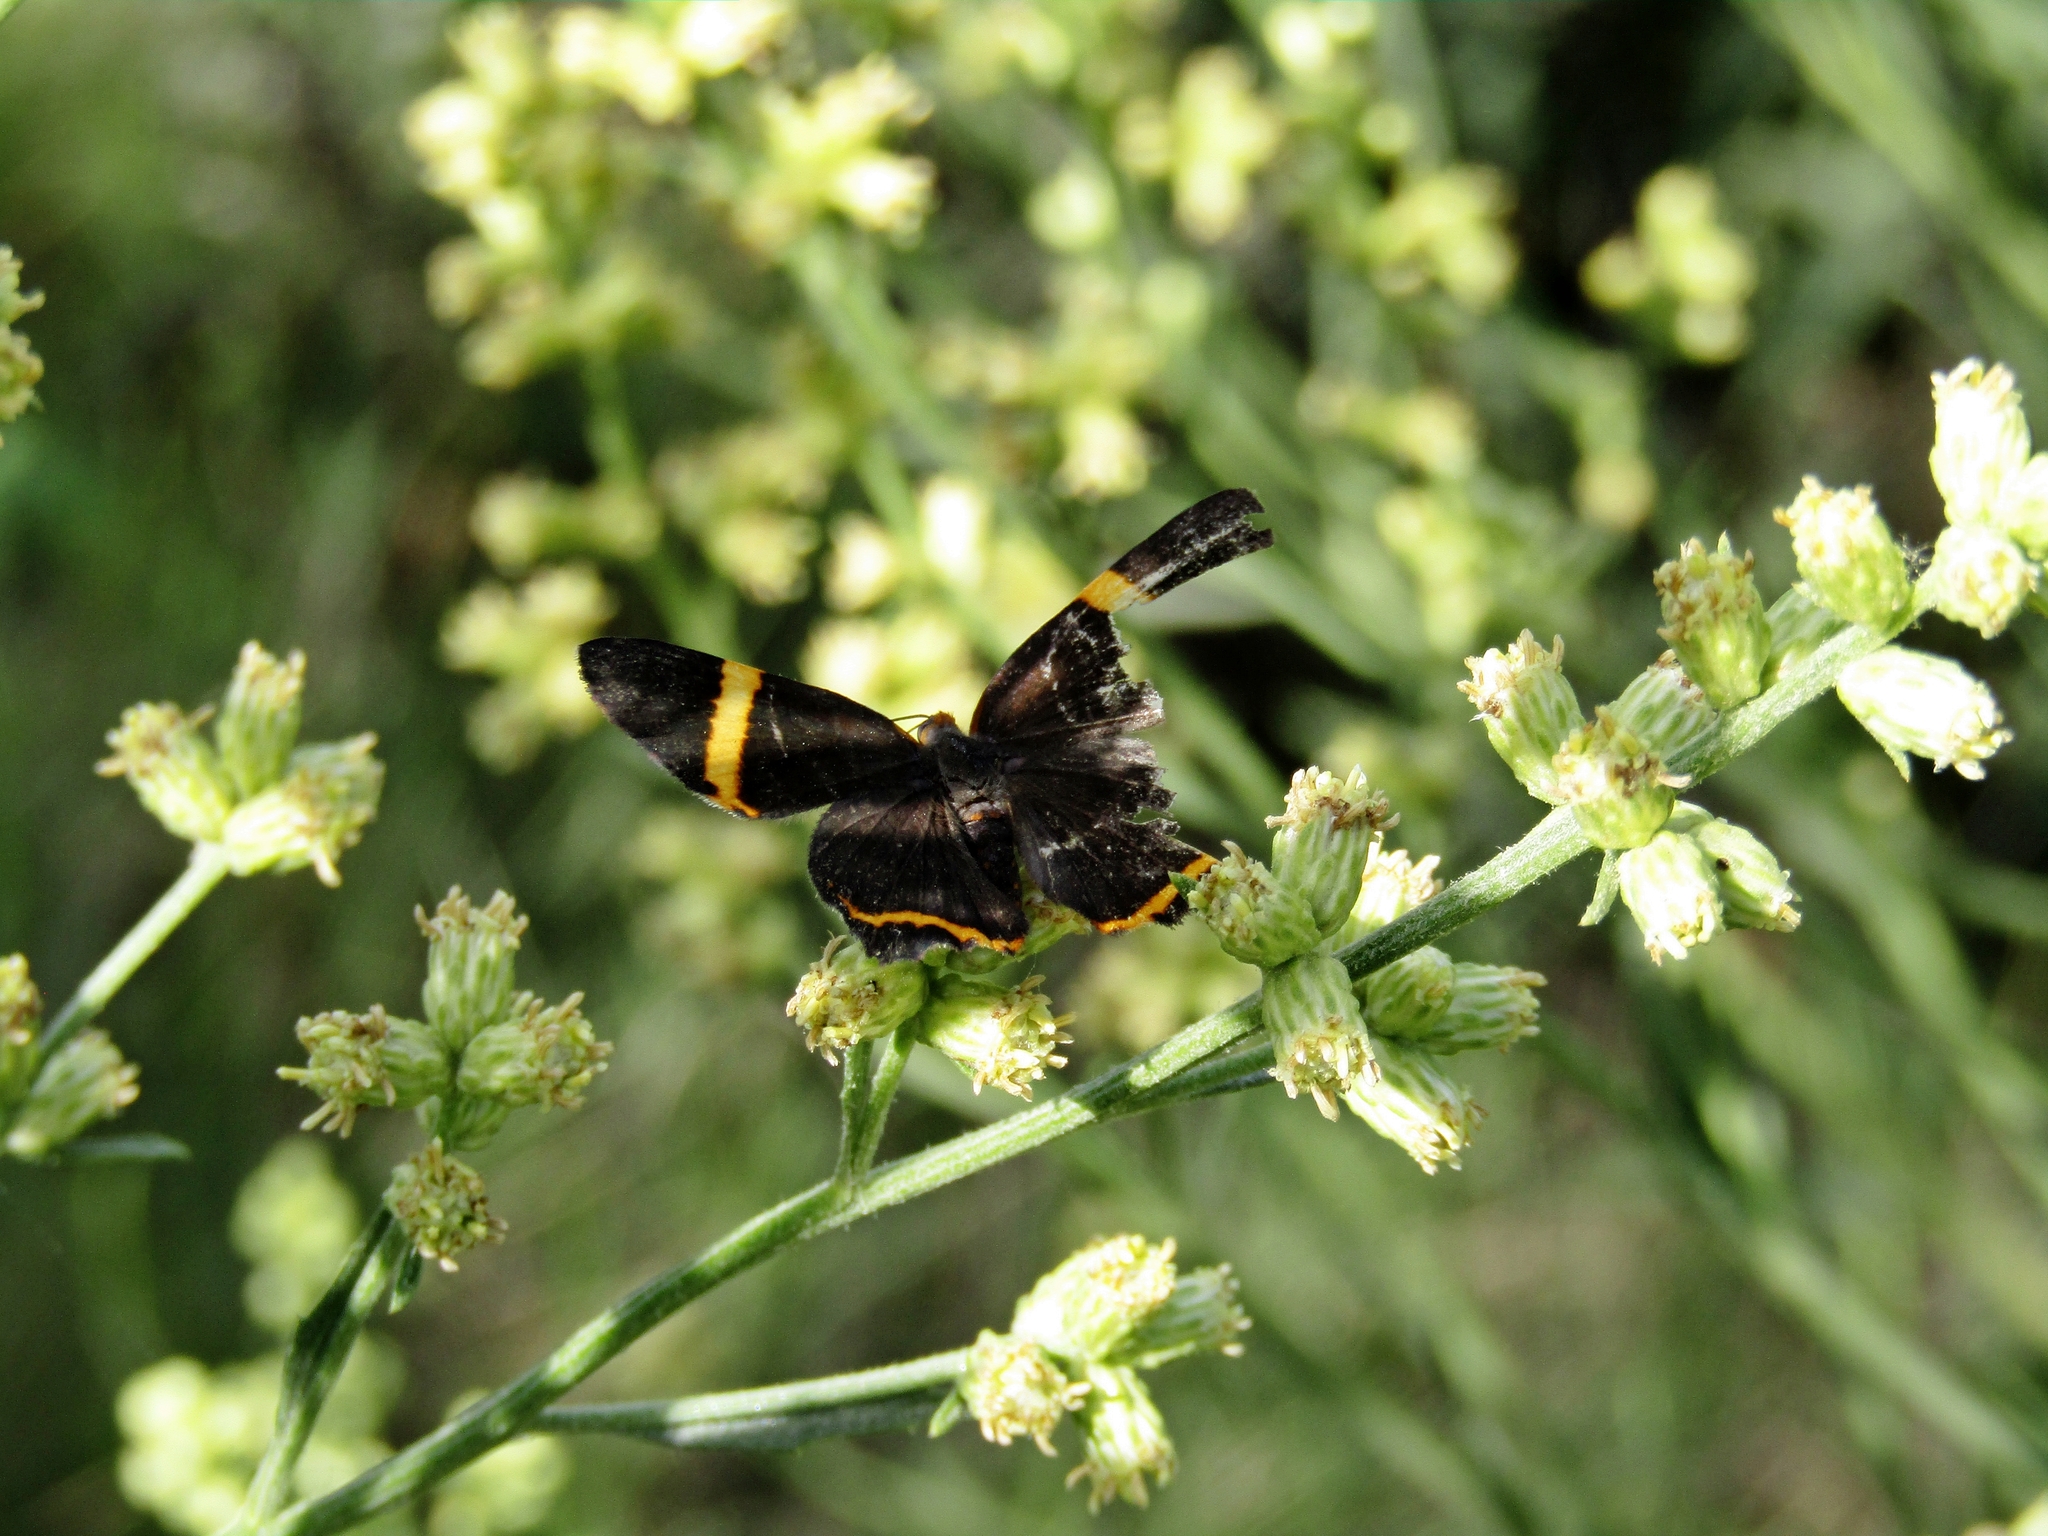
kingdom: Animalia
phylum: Arthropoda
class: Insecta
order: Lepidoptera
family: Riodinidae
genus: Riodina
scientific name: Riodina lysippoides
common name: Little dancer metalmark
